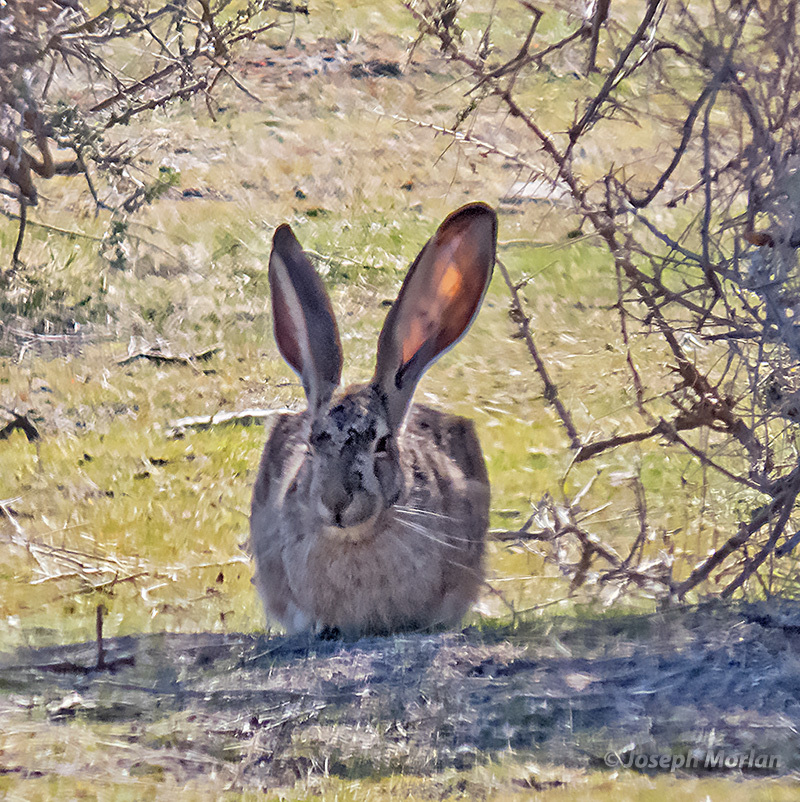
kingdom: Animalia
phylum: Chordata
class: Mammalia
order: Lagomorpha
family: Leporidae
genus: Lepus
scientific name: Lepus californicus
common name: Black-tailed jackrabbit
